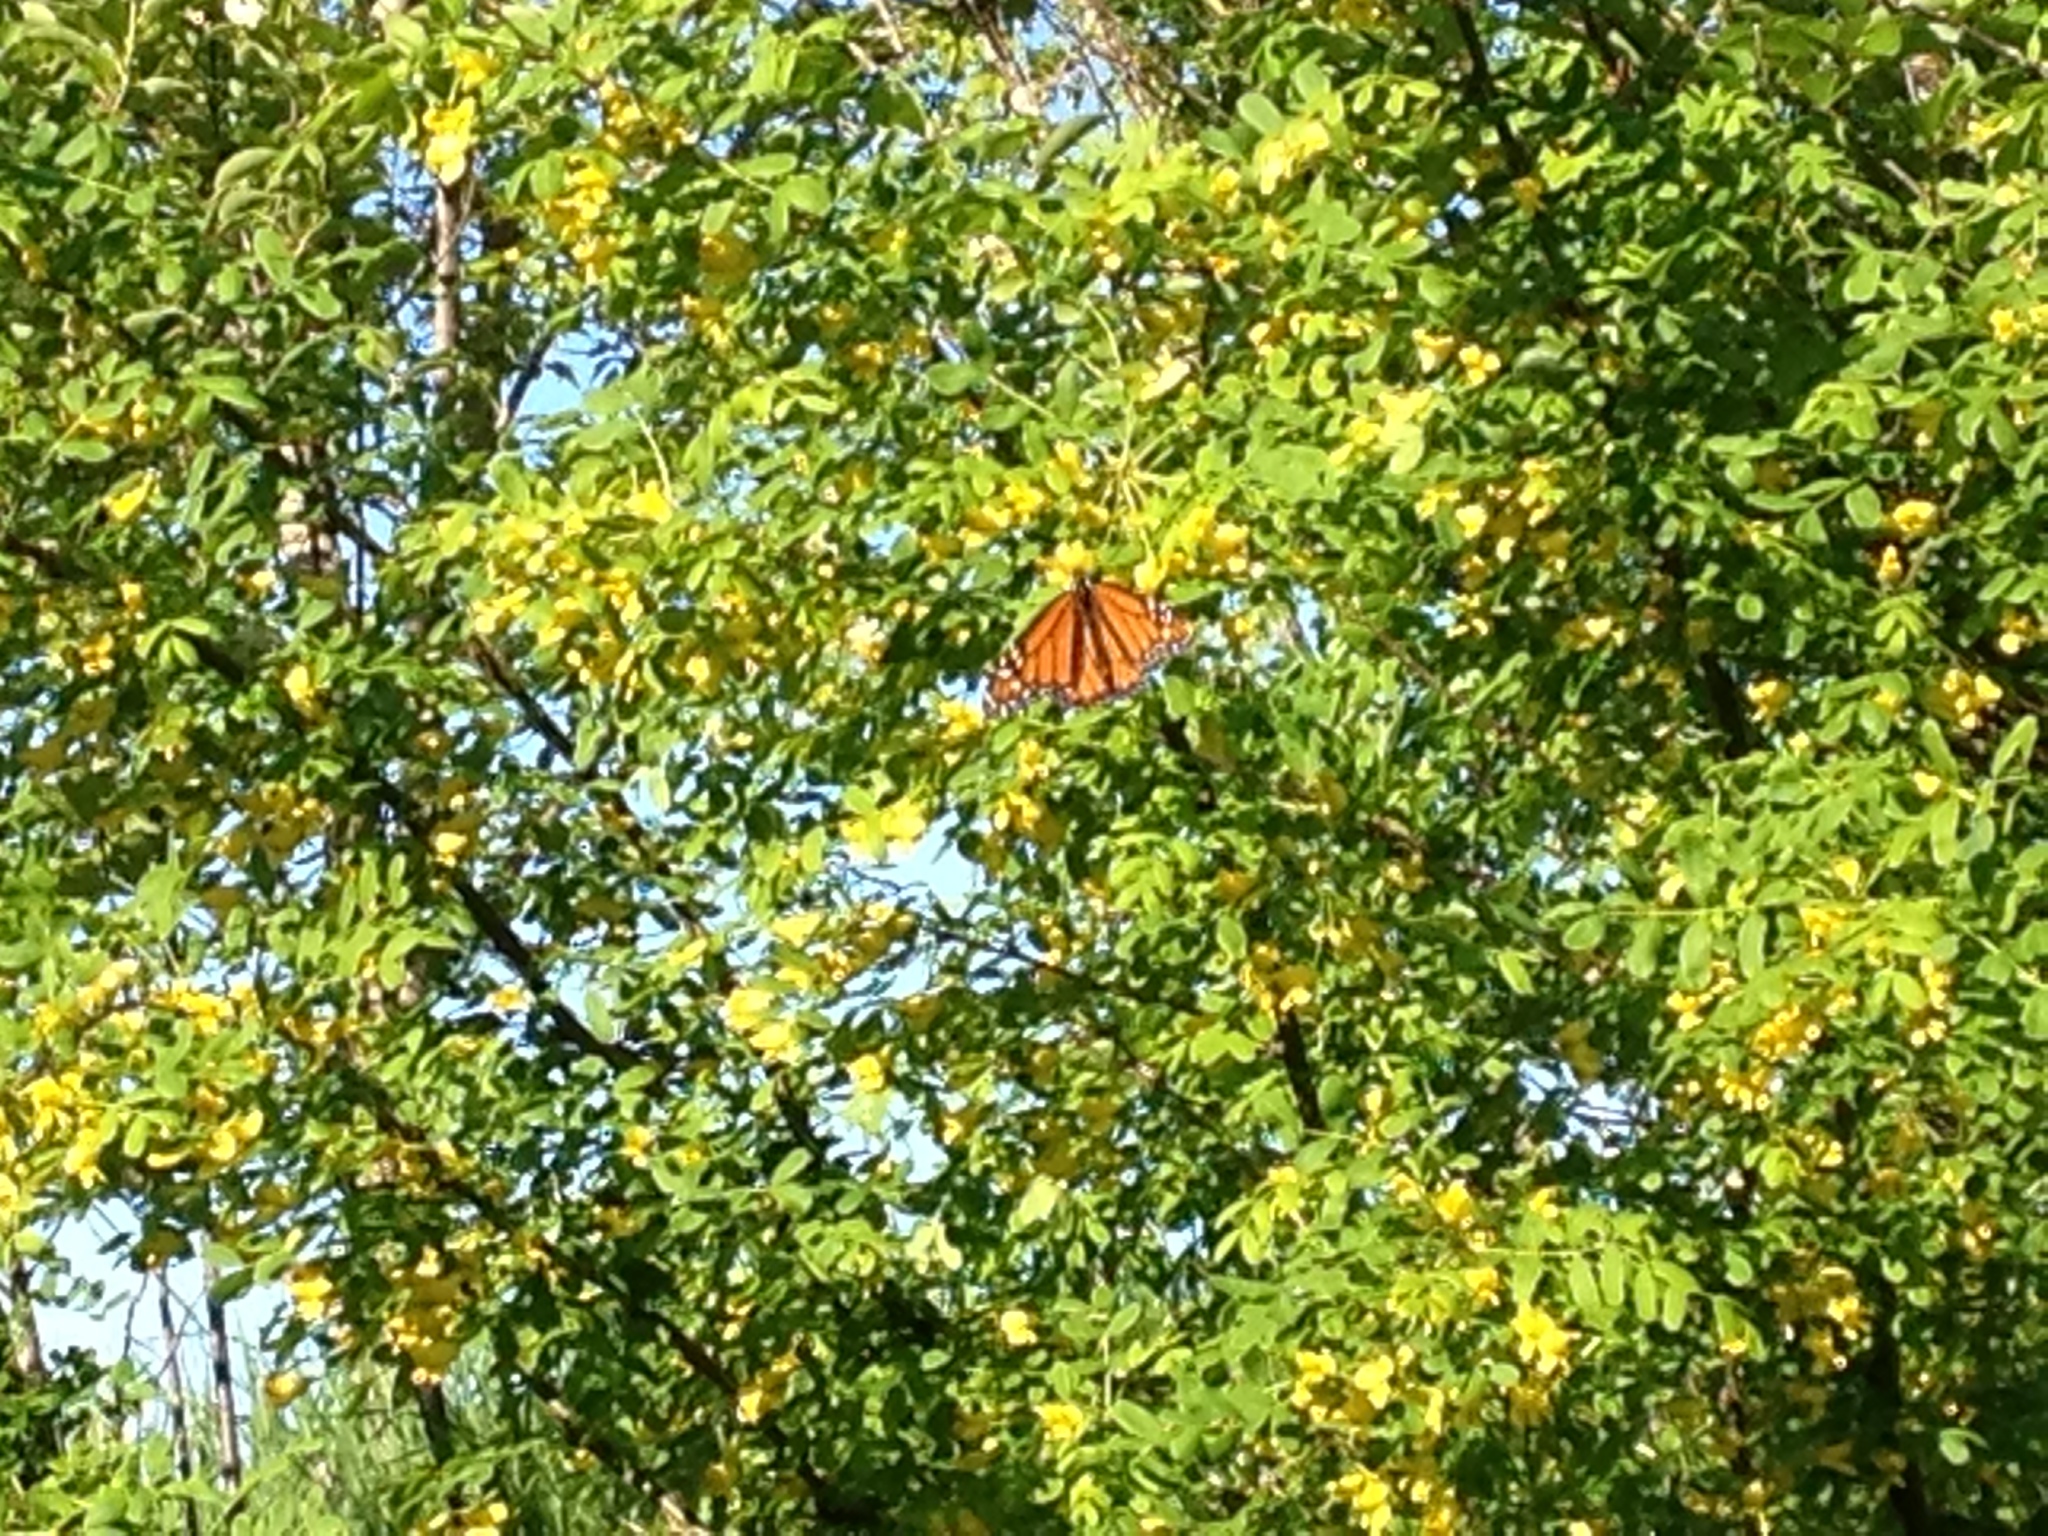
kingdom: Animalia
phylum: Arthropoda
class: Insecta
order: Lepidoptera
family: Nymphalidae
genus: Danaus
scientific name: Danaus plexippus
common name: Monarch
